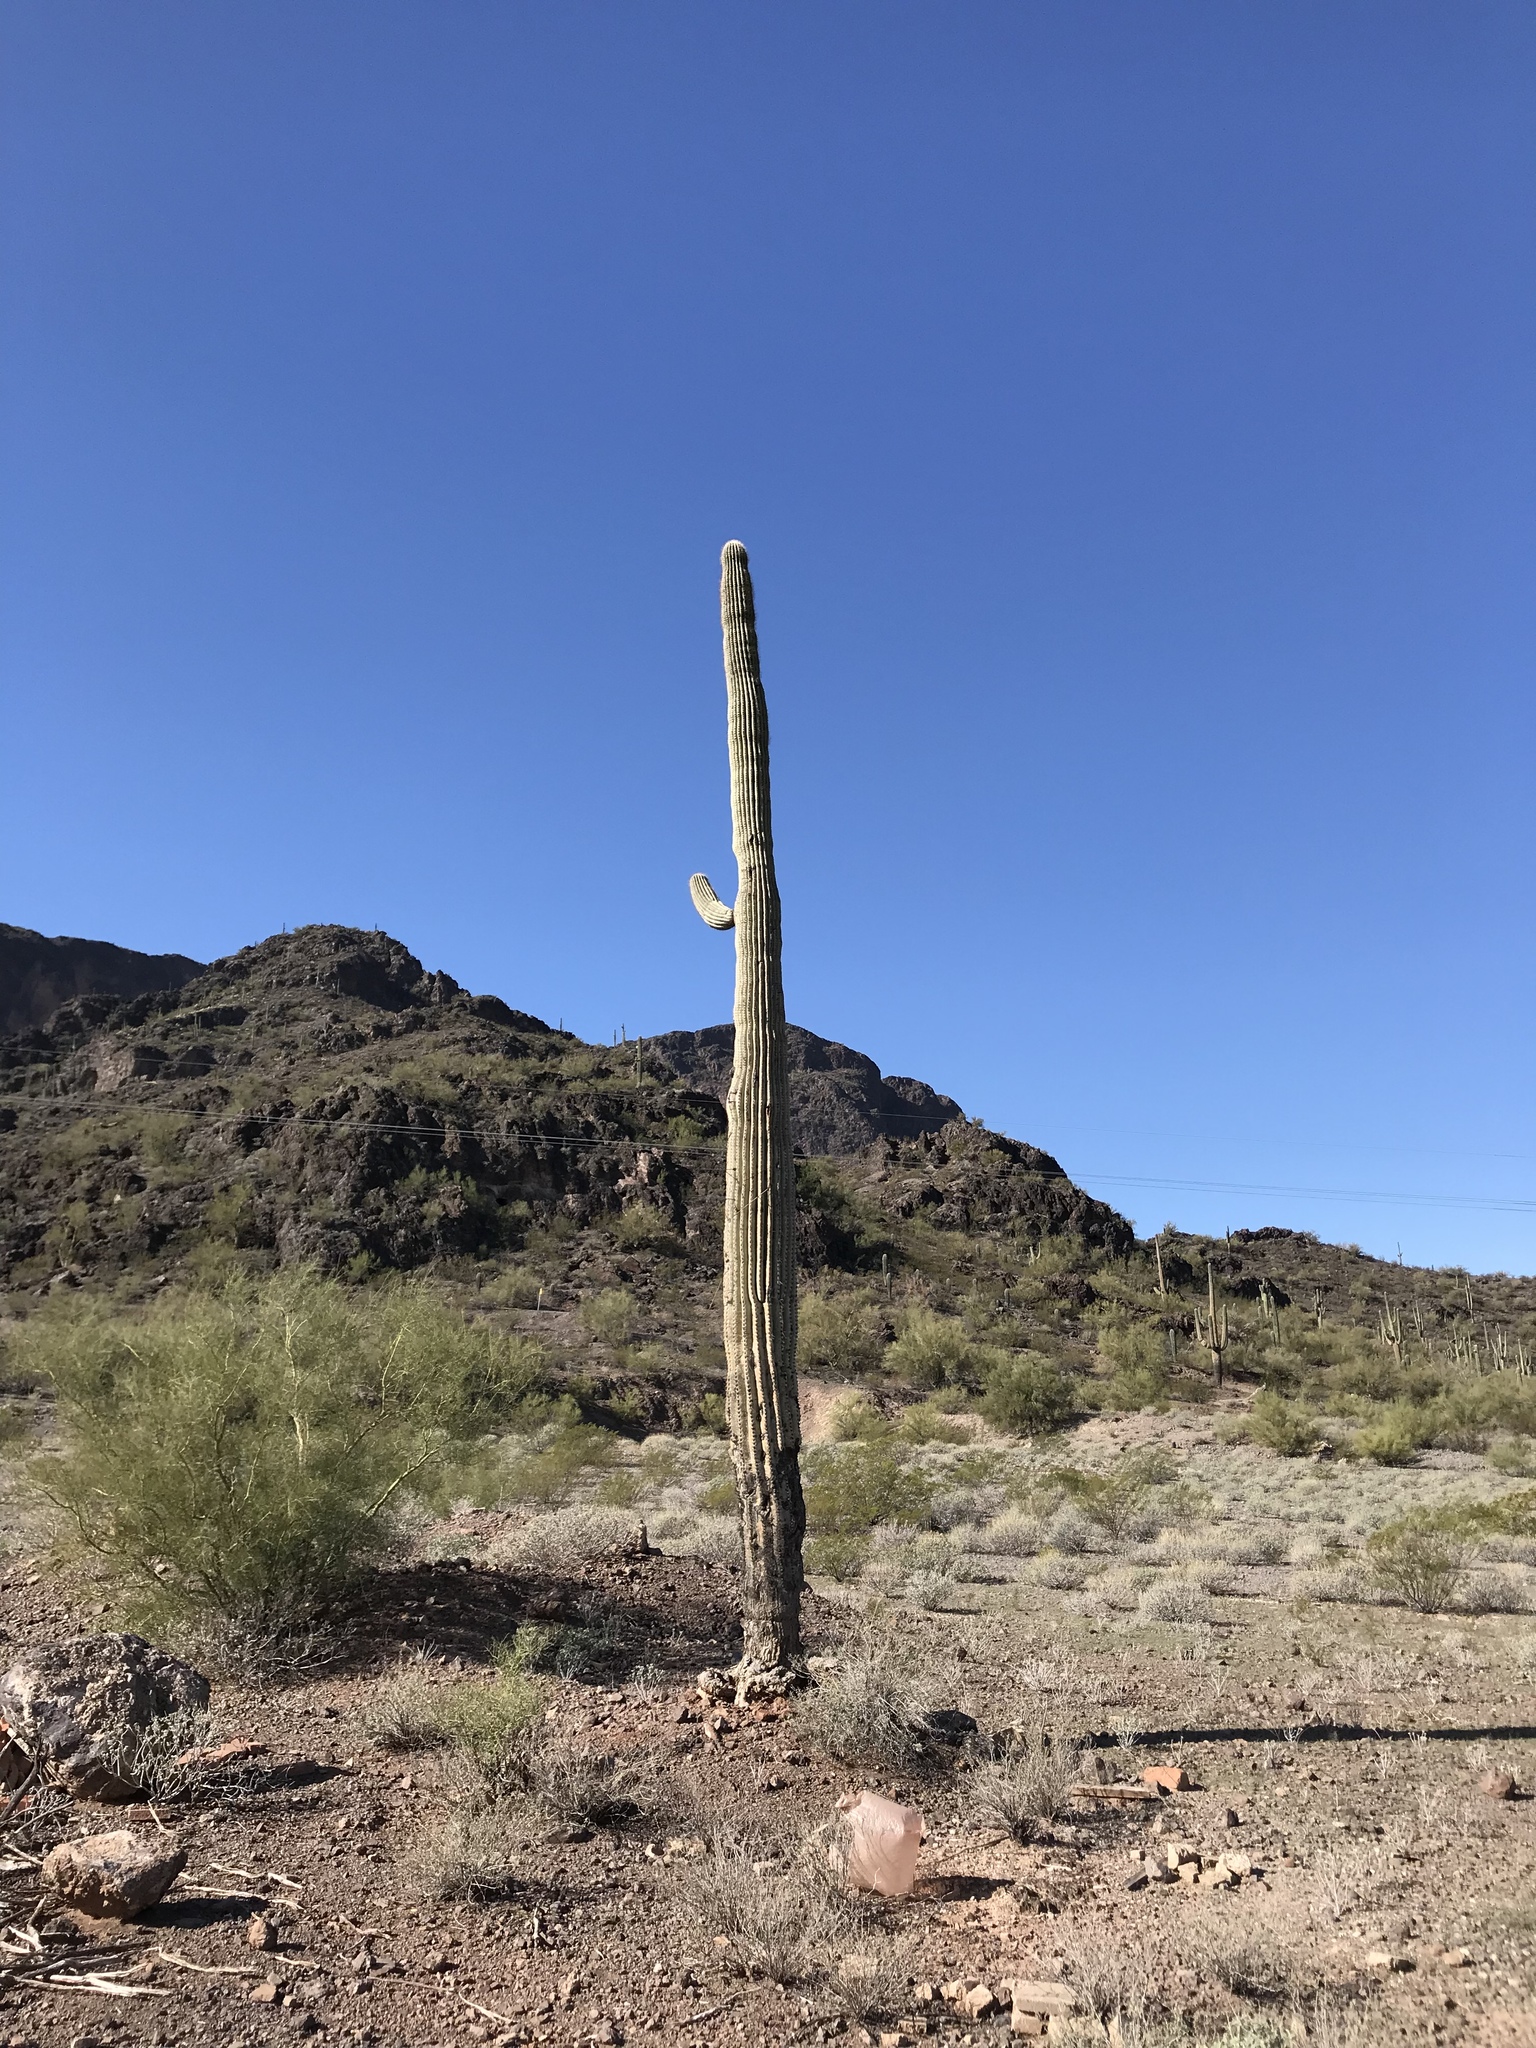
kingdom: Plantae
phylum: Tracheophyta
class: Magnoliopsida
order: Caryophyllales
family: Cactaceae
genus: Carnegiea
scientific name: Carnegiea gigantea
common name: Saguaro
